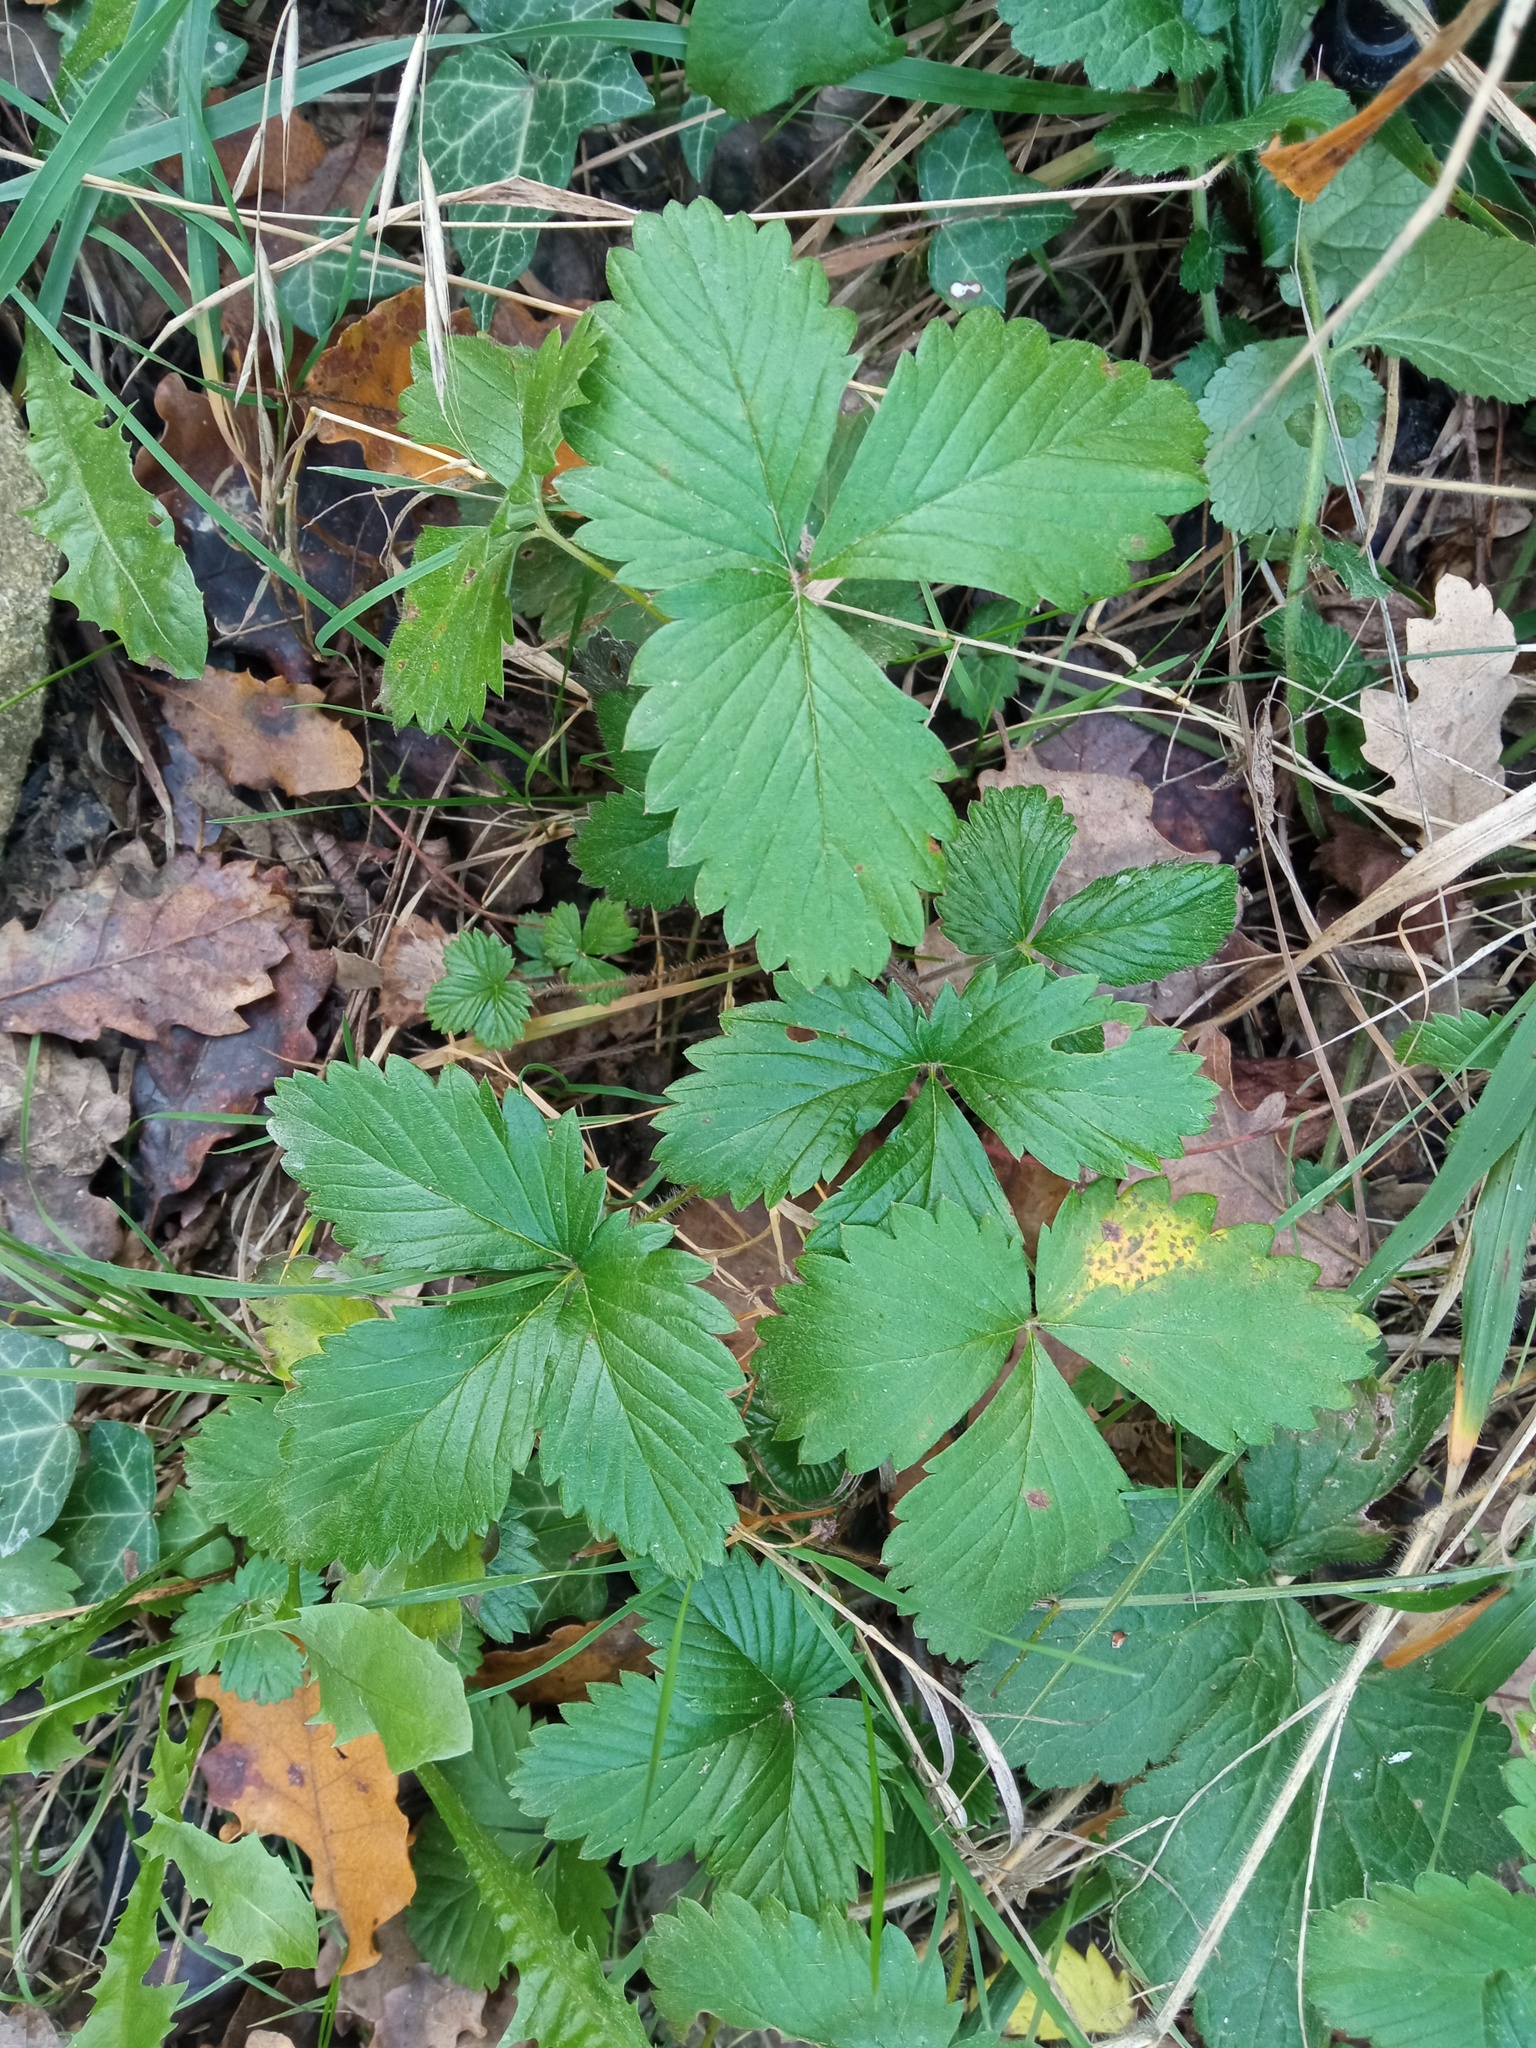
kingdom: Plantae
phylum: Tracheophyta
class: Magnoliopsida
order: Rosales
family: Rosaceae
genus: Fragaria
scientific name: Fragaria vesca
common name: Wild strawberry
